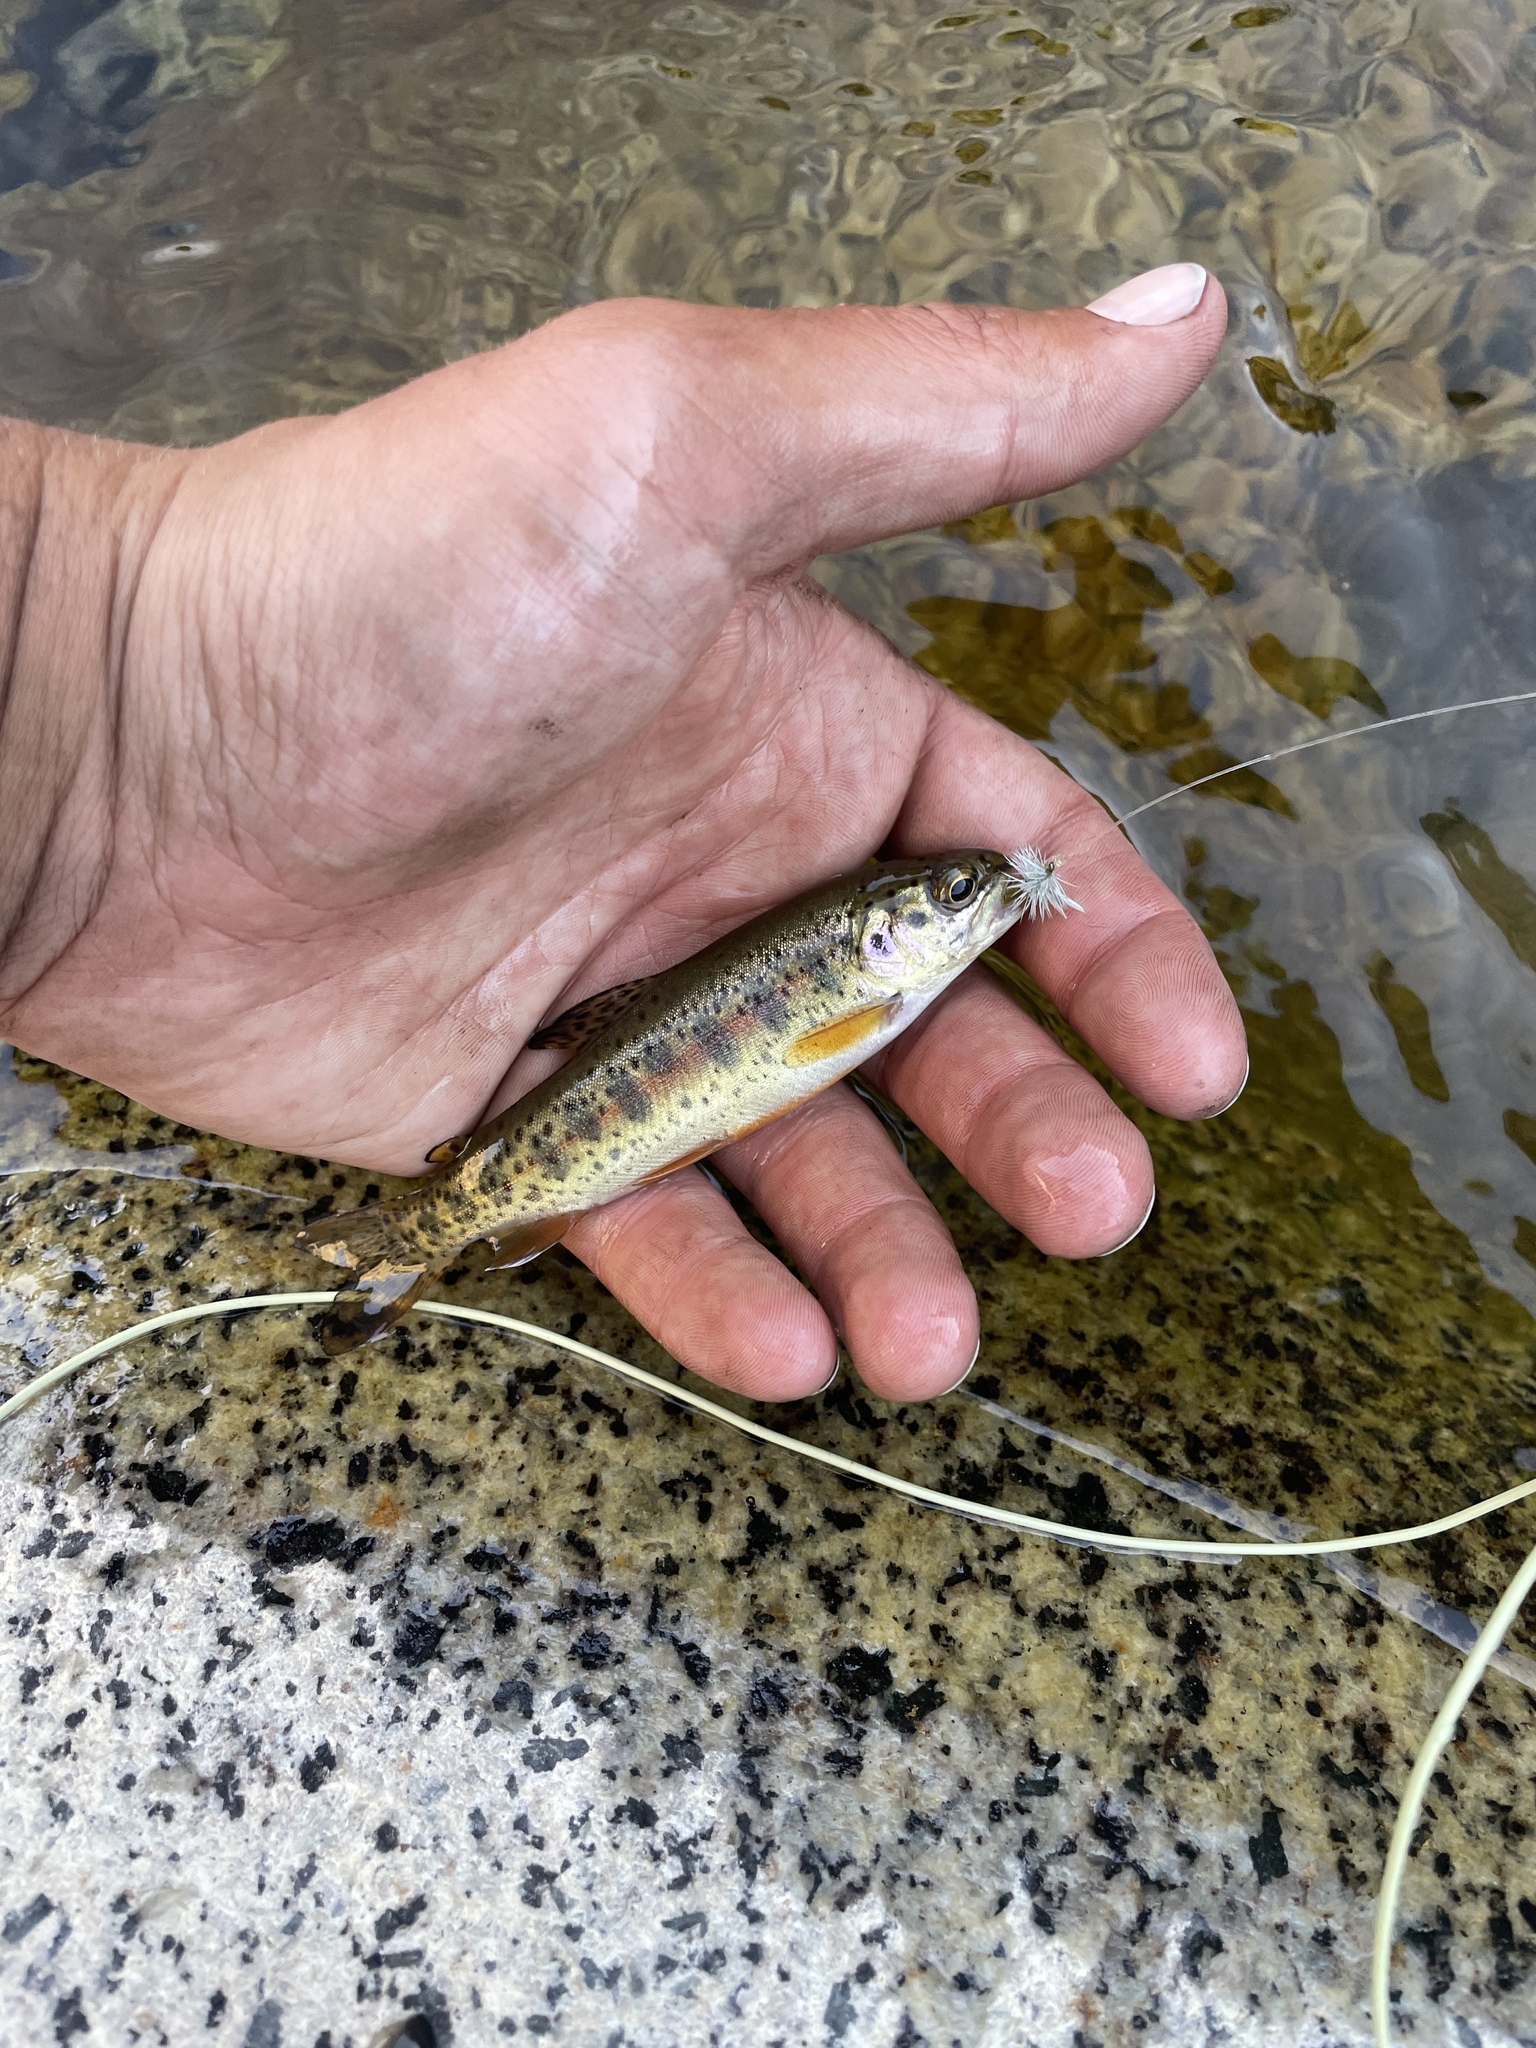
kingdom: Animalia
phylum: Chordata
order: Salmoniformes
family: Salmonidae
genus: Oncorhynchus
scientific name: Oncorhynchus mykiss
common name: Rainbow trout
